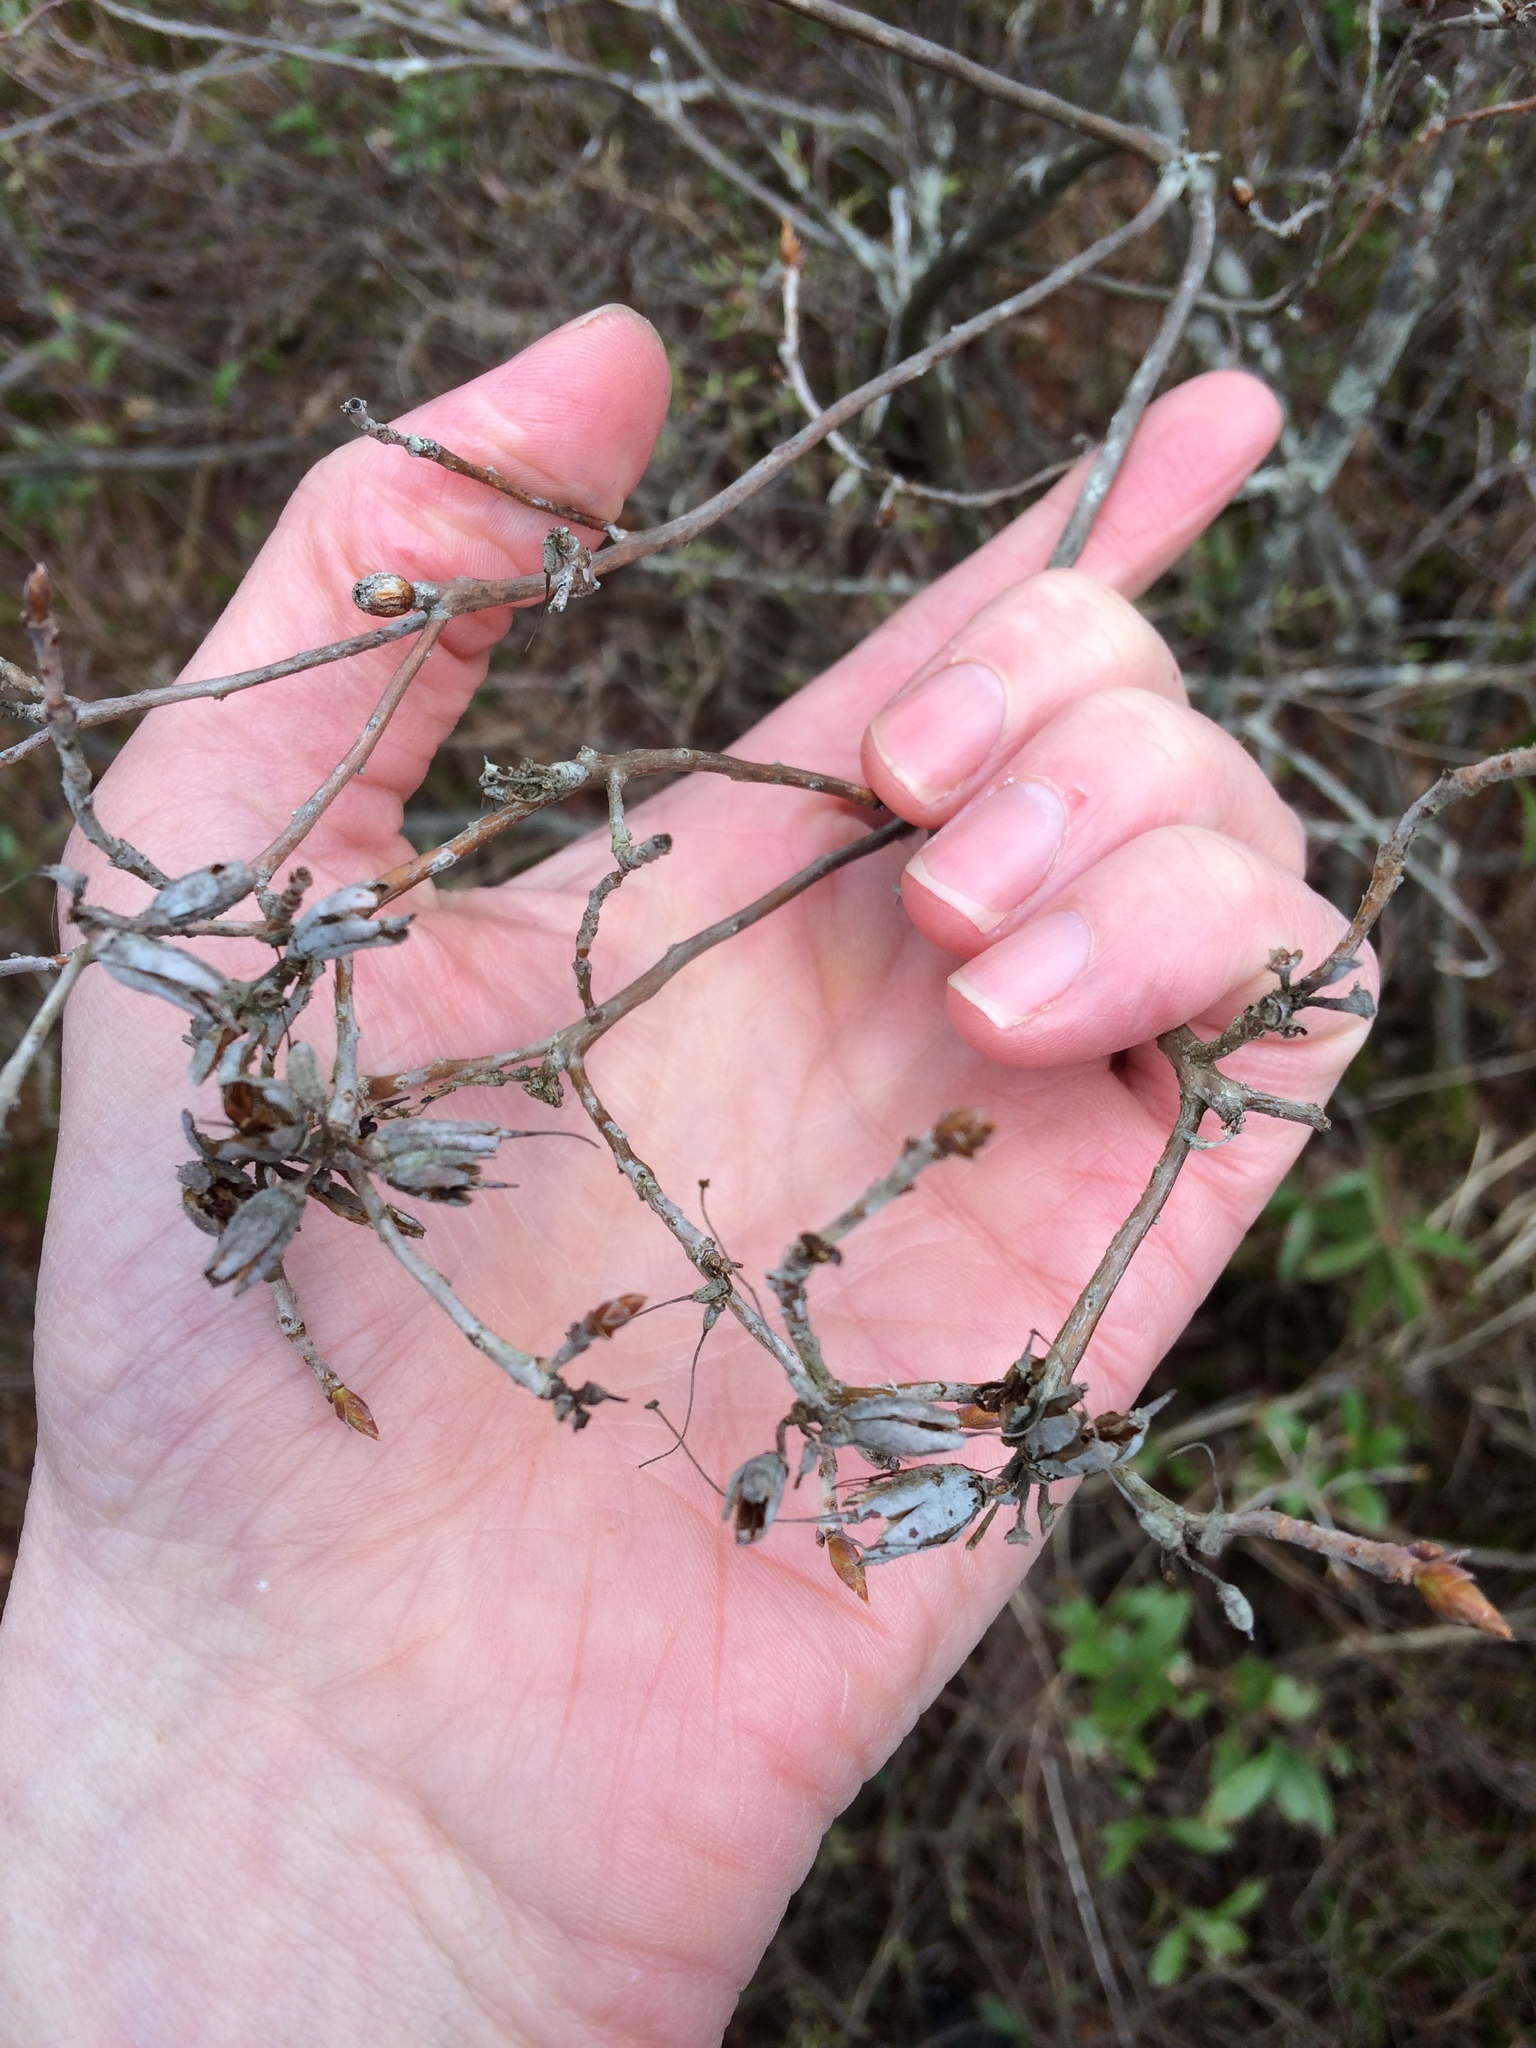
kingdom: Plantae
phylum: Tracheophyta
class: Magnoliopsida
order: Ericales
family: Ericaceae
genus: Rhododendron
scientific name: Rhododendron canadense
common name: Rhodora
